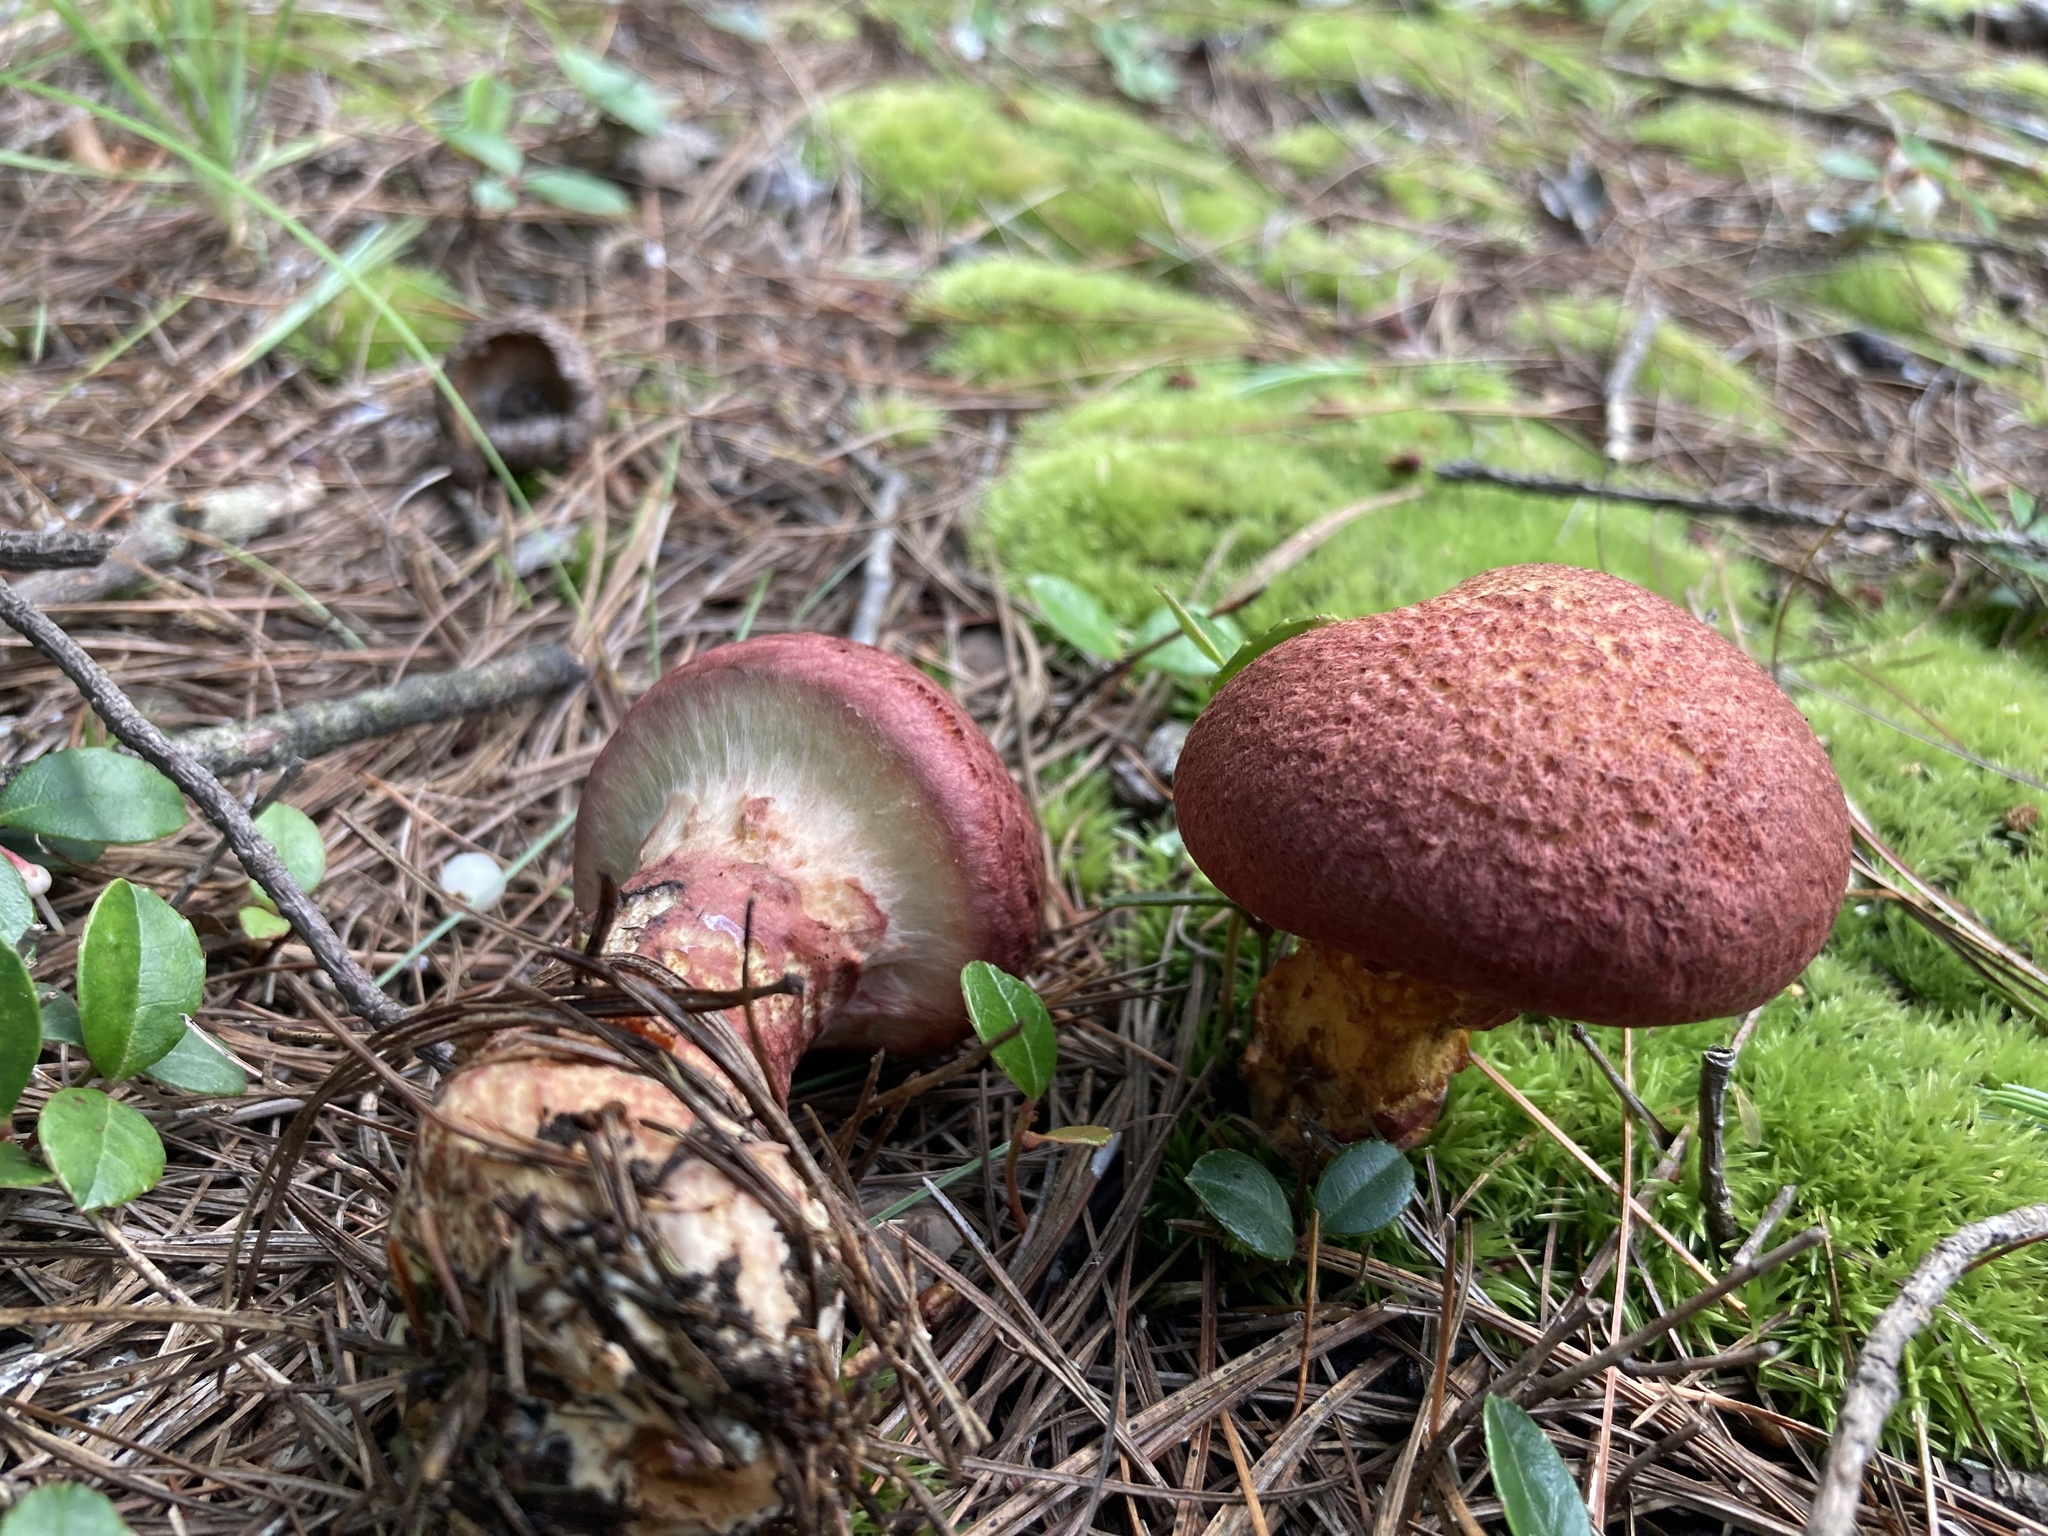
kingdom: Fungi
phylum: Basidiomycota
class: Agaricomycetes
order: Boletales
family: Suillaceae
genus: Suillus
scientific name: Suillus spraguei
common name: Painted suillus
